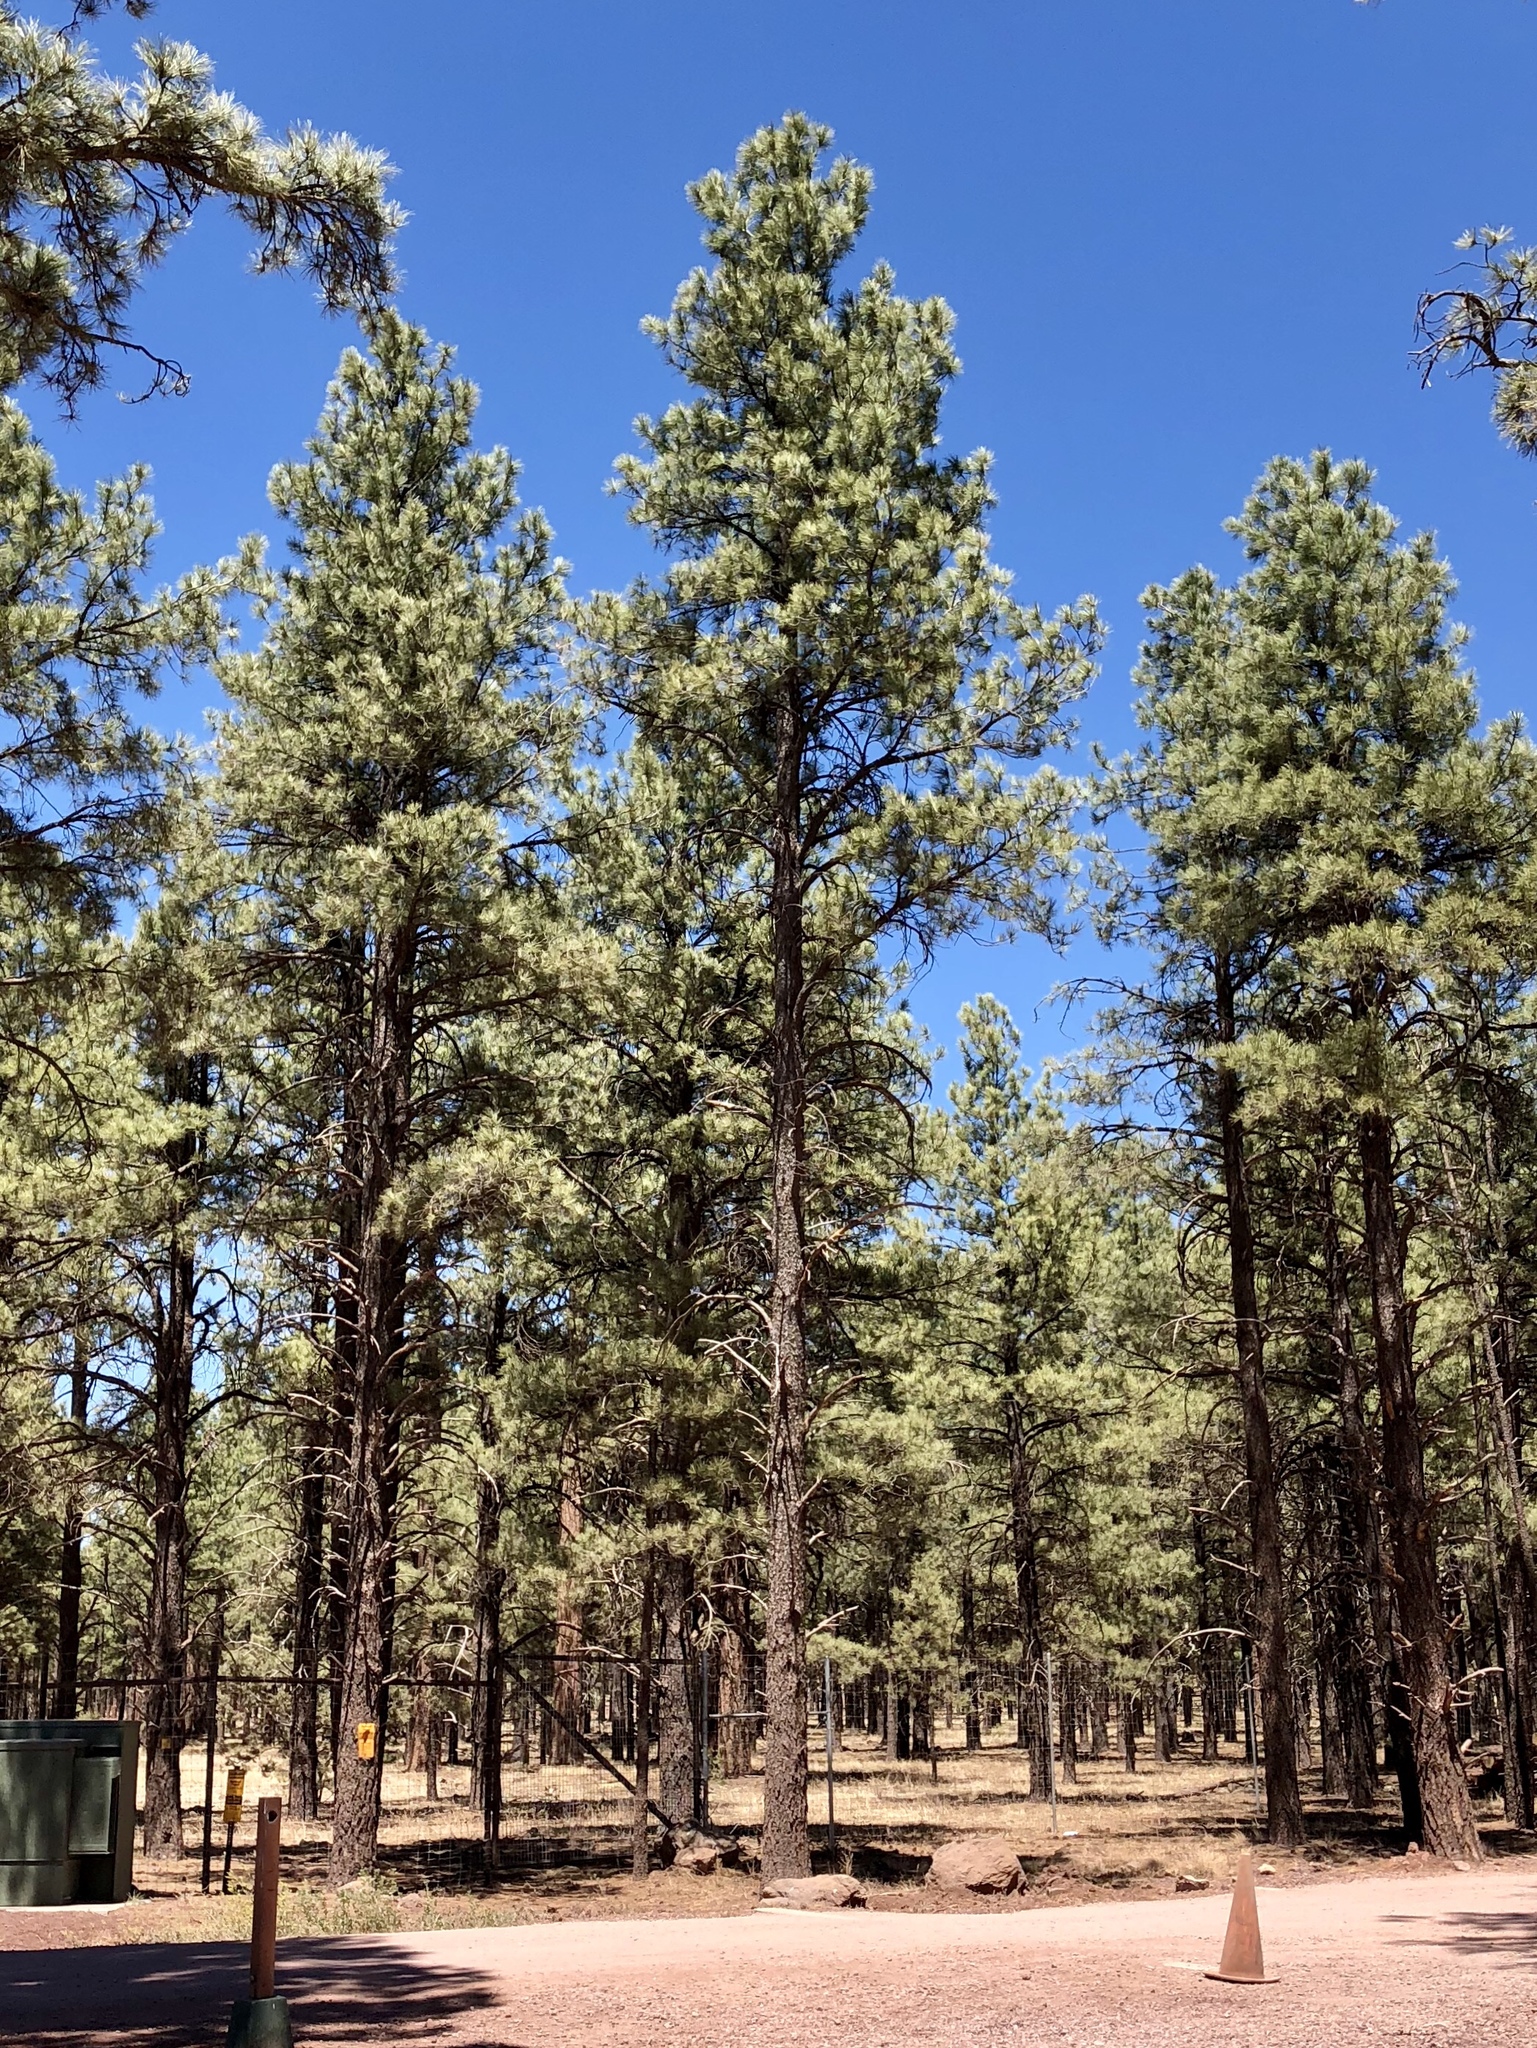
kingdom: Plantae
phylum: Tracheophyta
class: Pinopsida
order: Pinales
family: Pinaceae
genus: Pinus
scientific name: Pinus ponderosa
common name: Western yellow-pine
